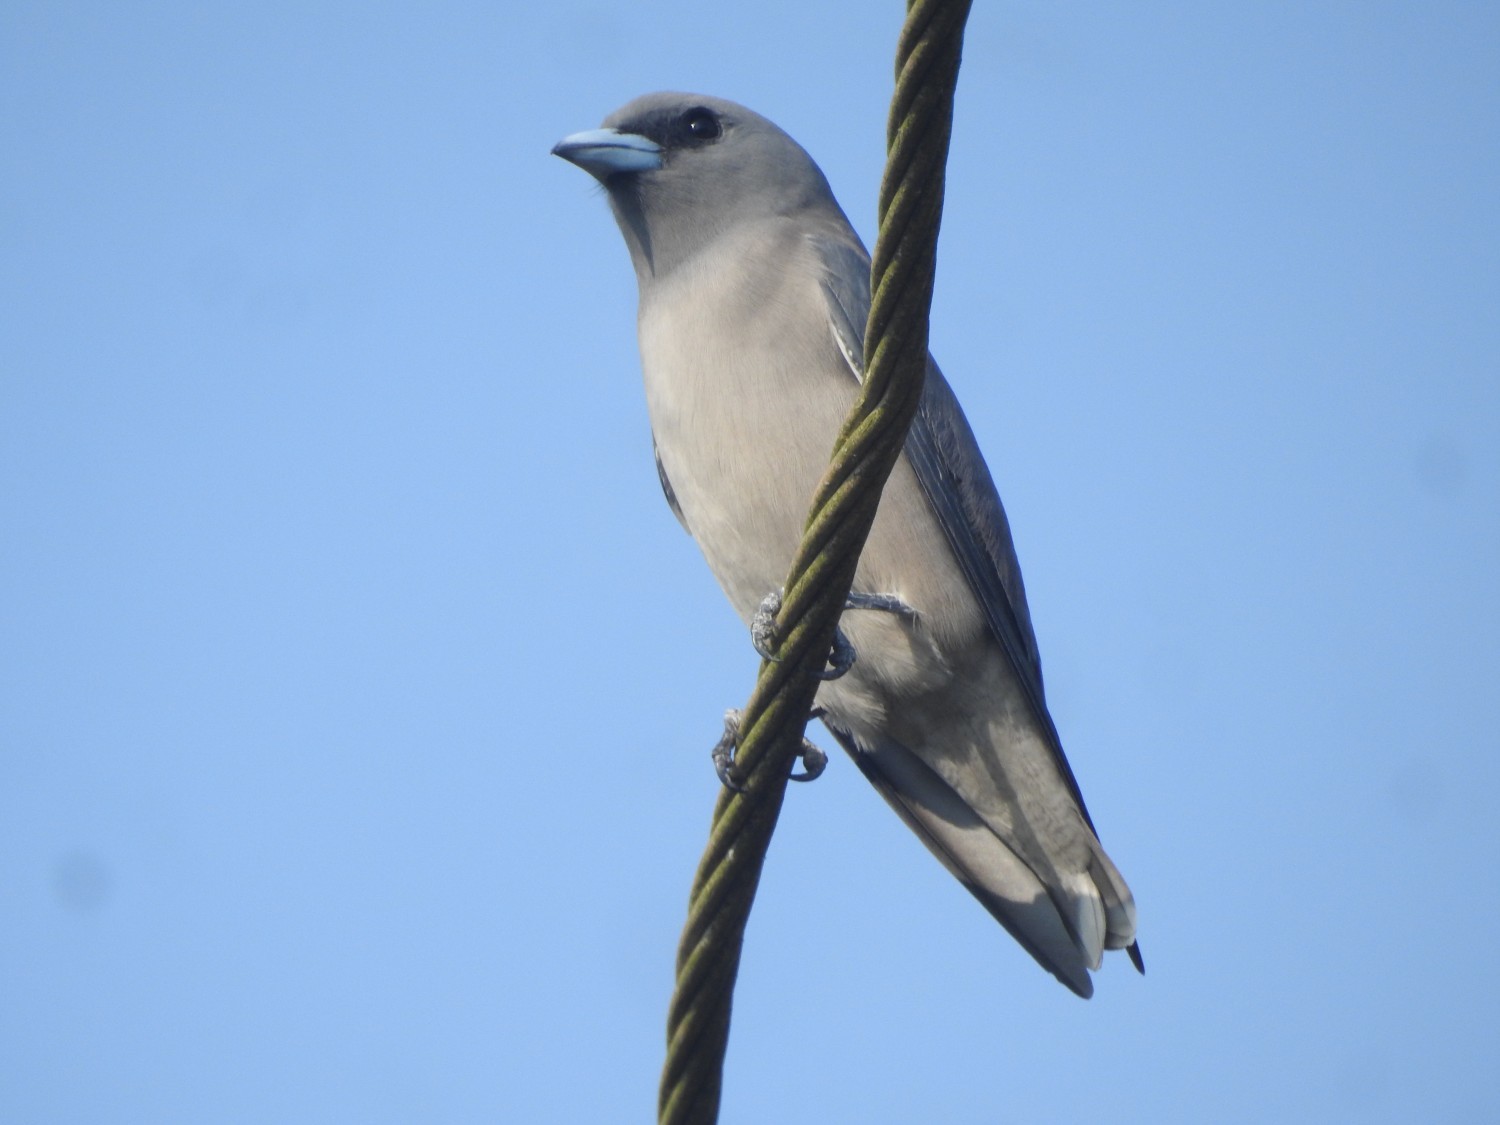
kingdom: Animalia
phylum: Chordata
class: Aves
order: Passeriformes
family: Artamidae
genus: Artamus
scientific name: Artamus fuscus
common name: Ashy woodswallow
